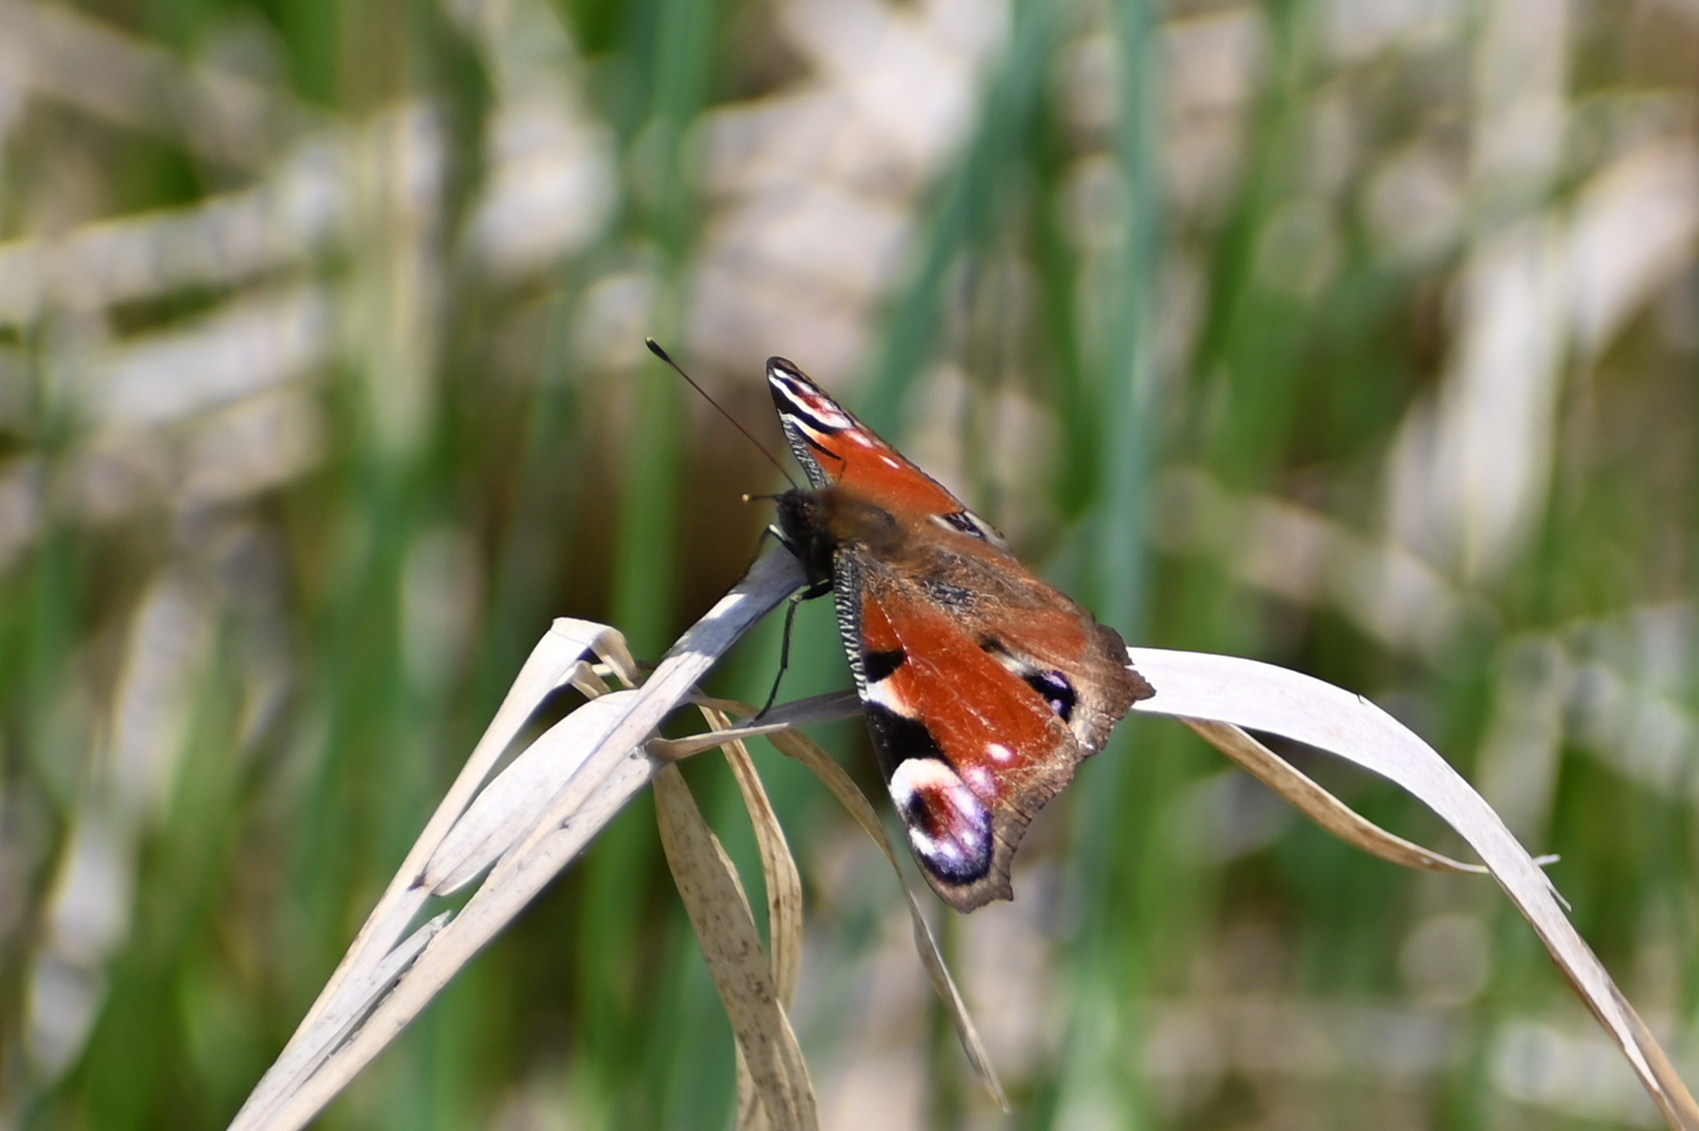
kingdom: Animalia
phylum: Arthropoda
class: Insecta
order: Lepidoptera
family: Nymphalidae
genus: Aglais
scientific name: Aglais io
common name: Peacock
